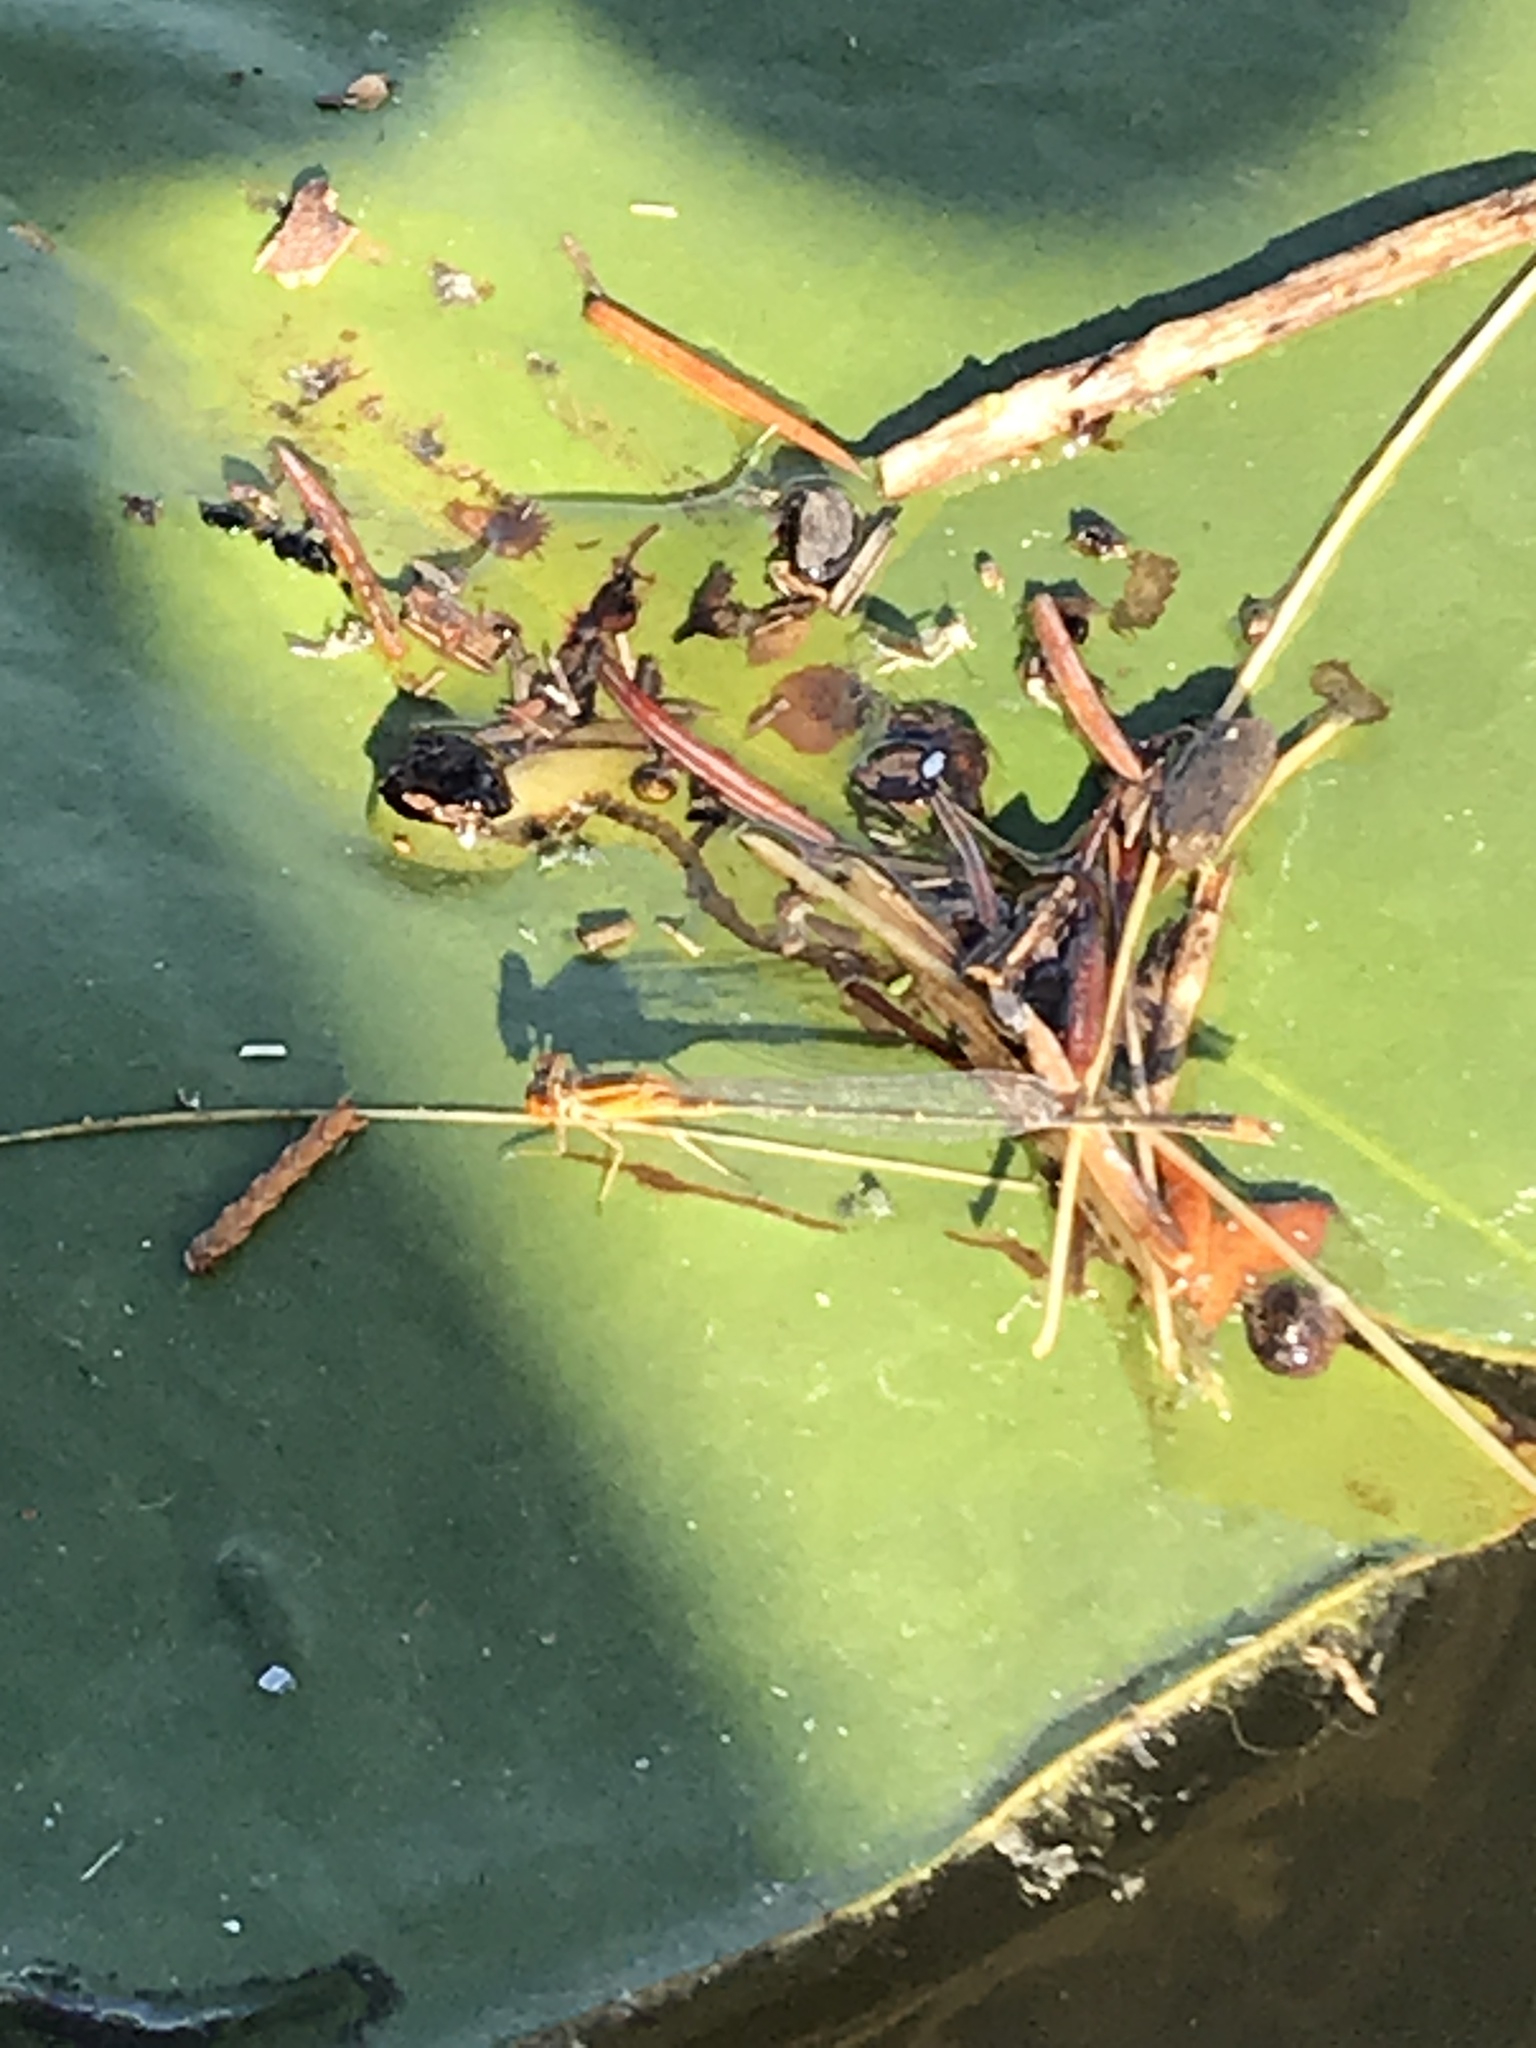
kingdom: Animalia
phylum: Arthropoda
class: Insecta
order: Odonata
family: Coenagrionidae
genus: Enallagma
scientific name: Enallagma signatum
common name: Orange bluet
